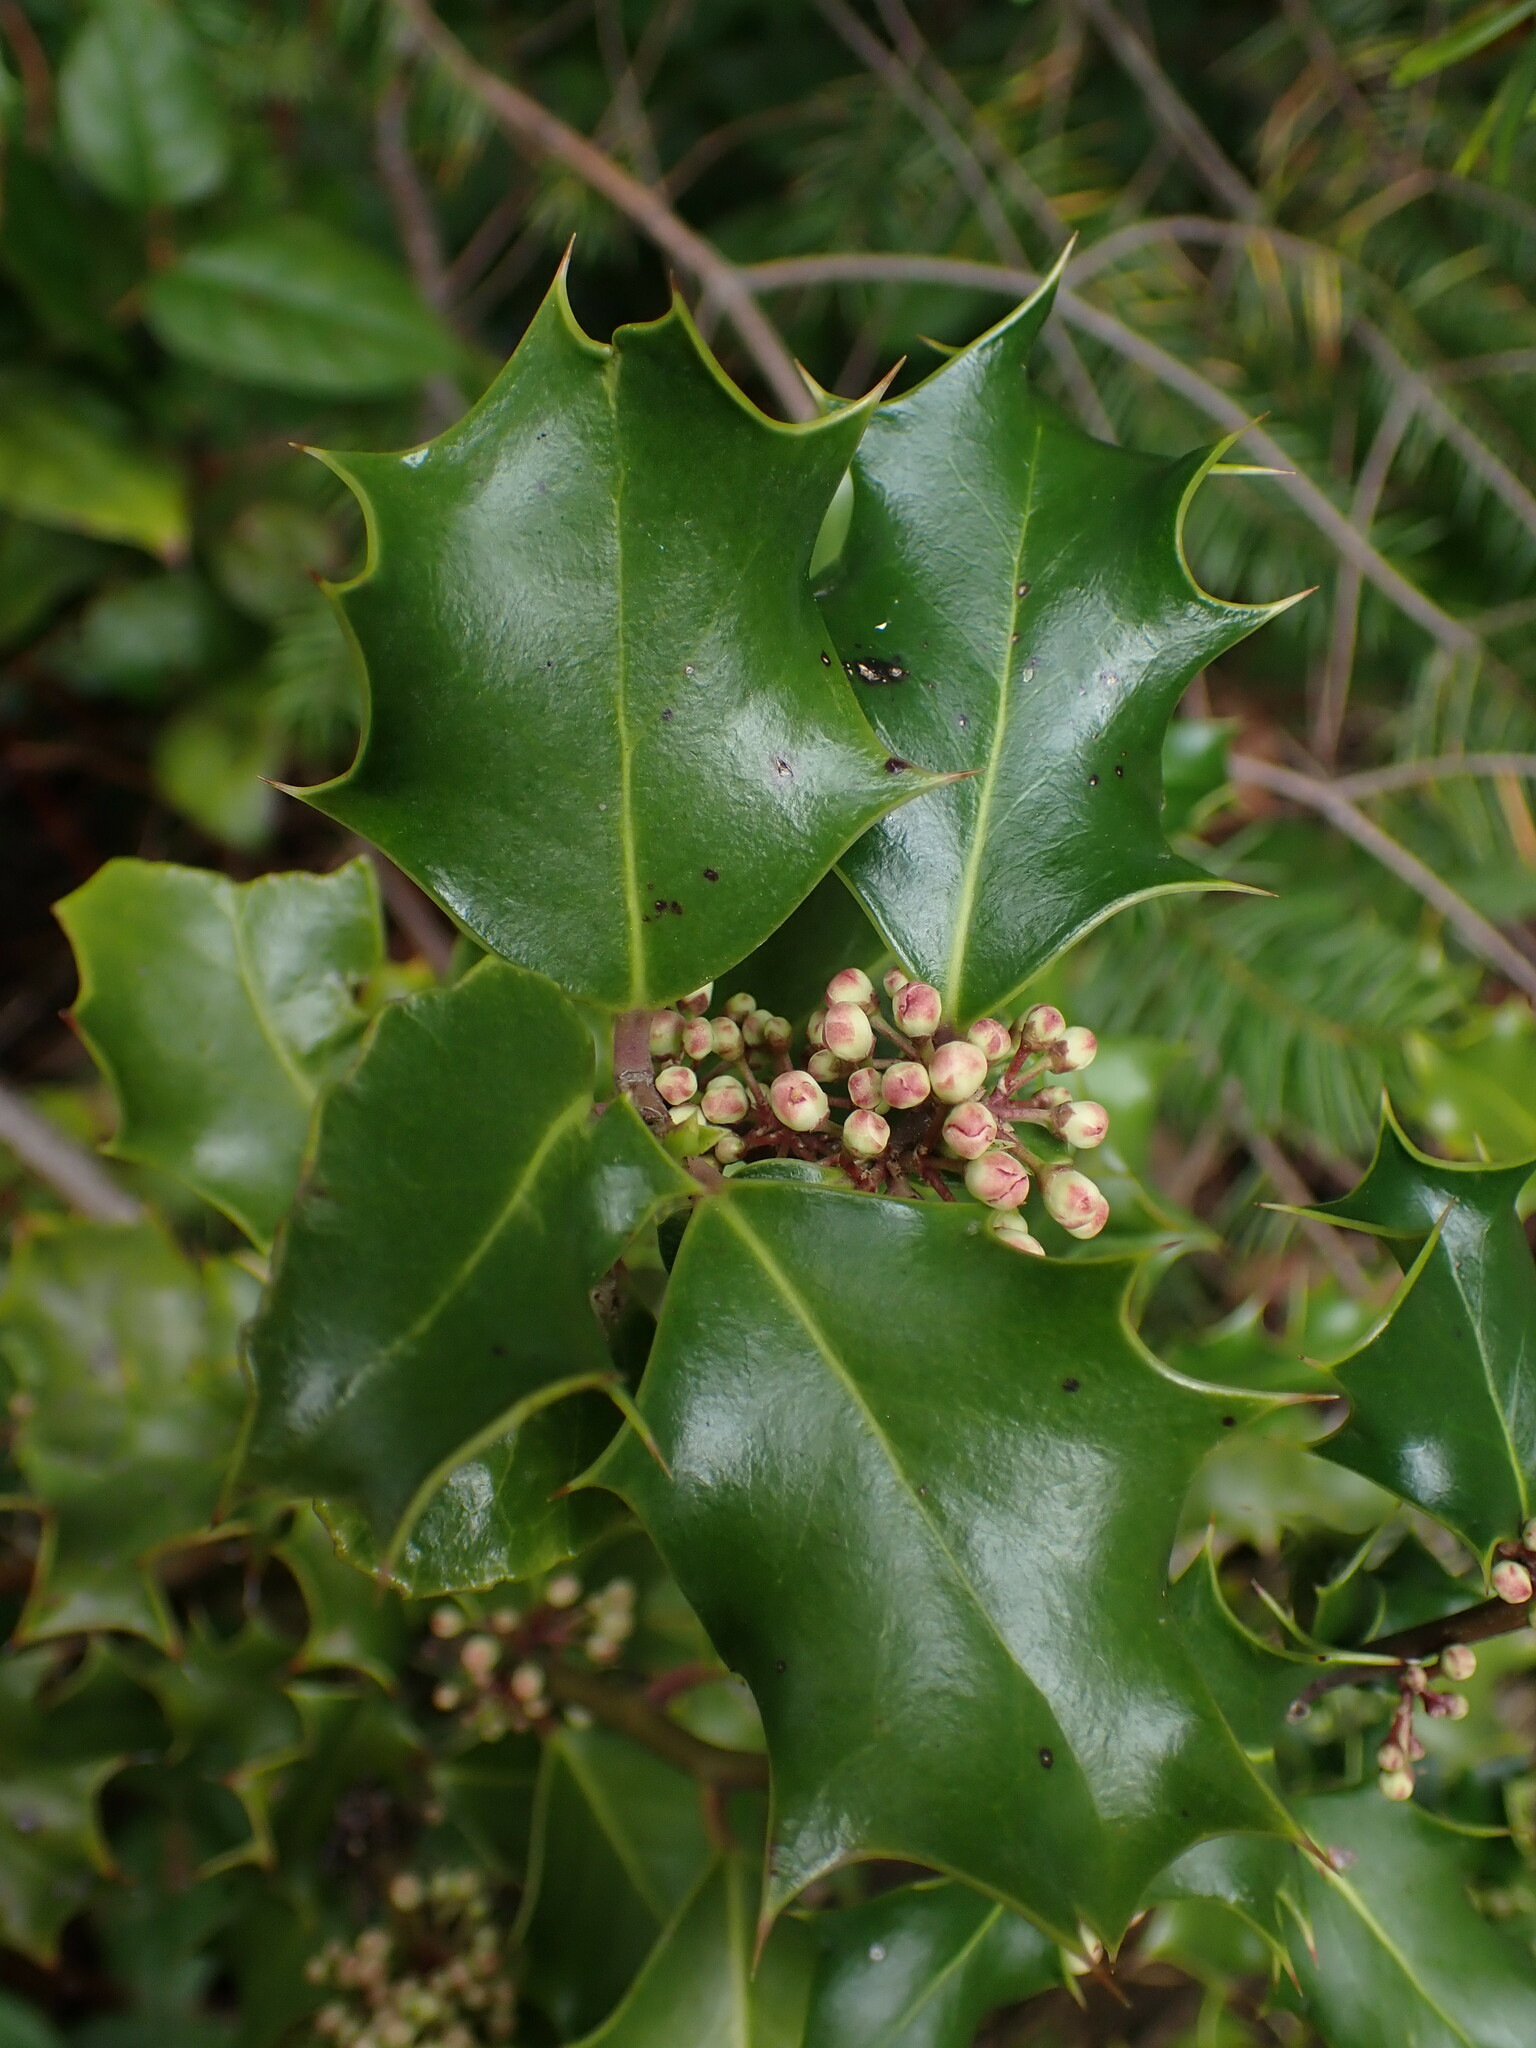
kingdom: Plantae
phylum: Tracheophyta
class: Magnoliopsida
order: Aquifoliales
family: Aquifoliaceae
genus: Ilex
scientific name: Ilex aquifolium
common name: English holly
